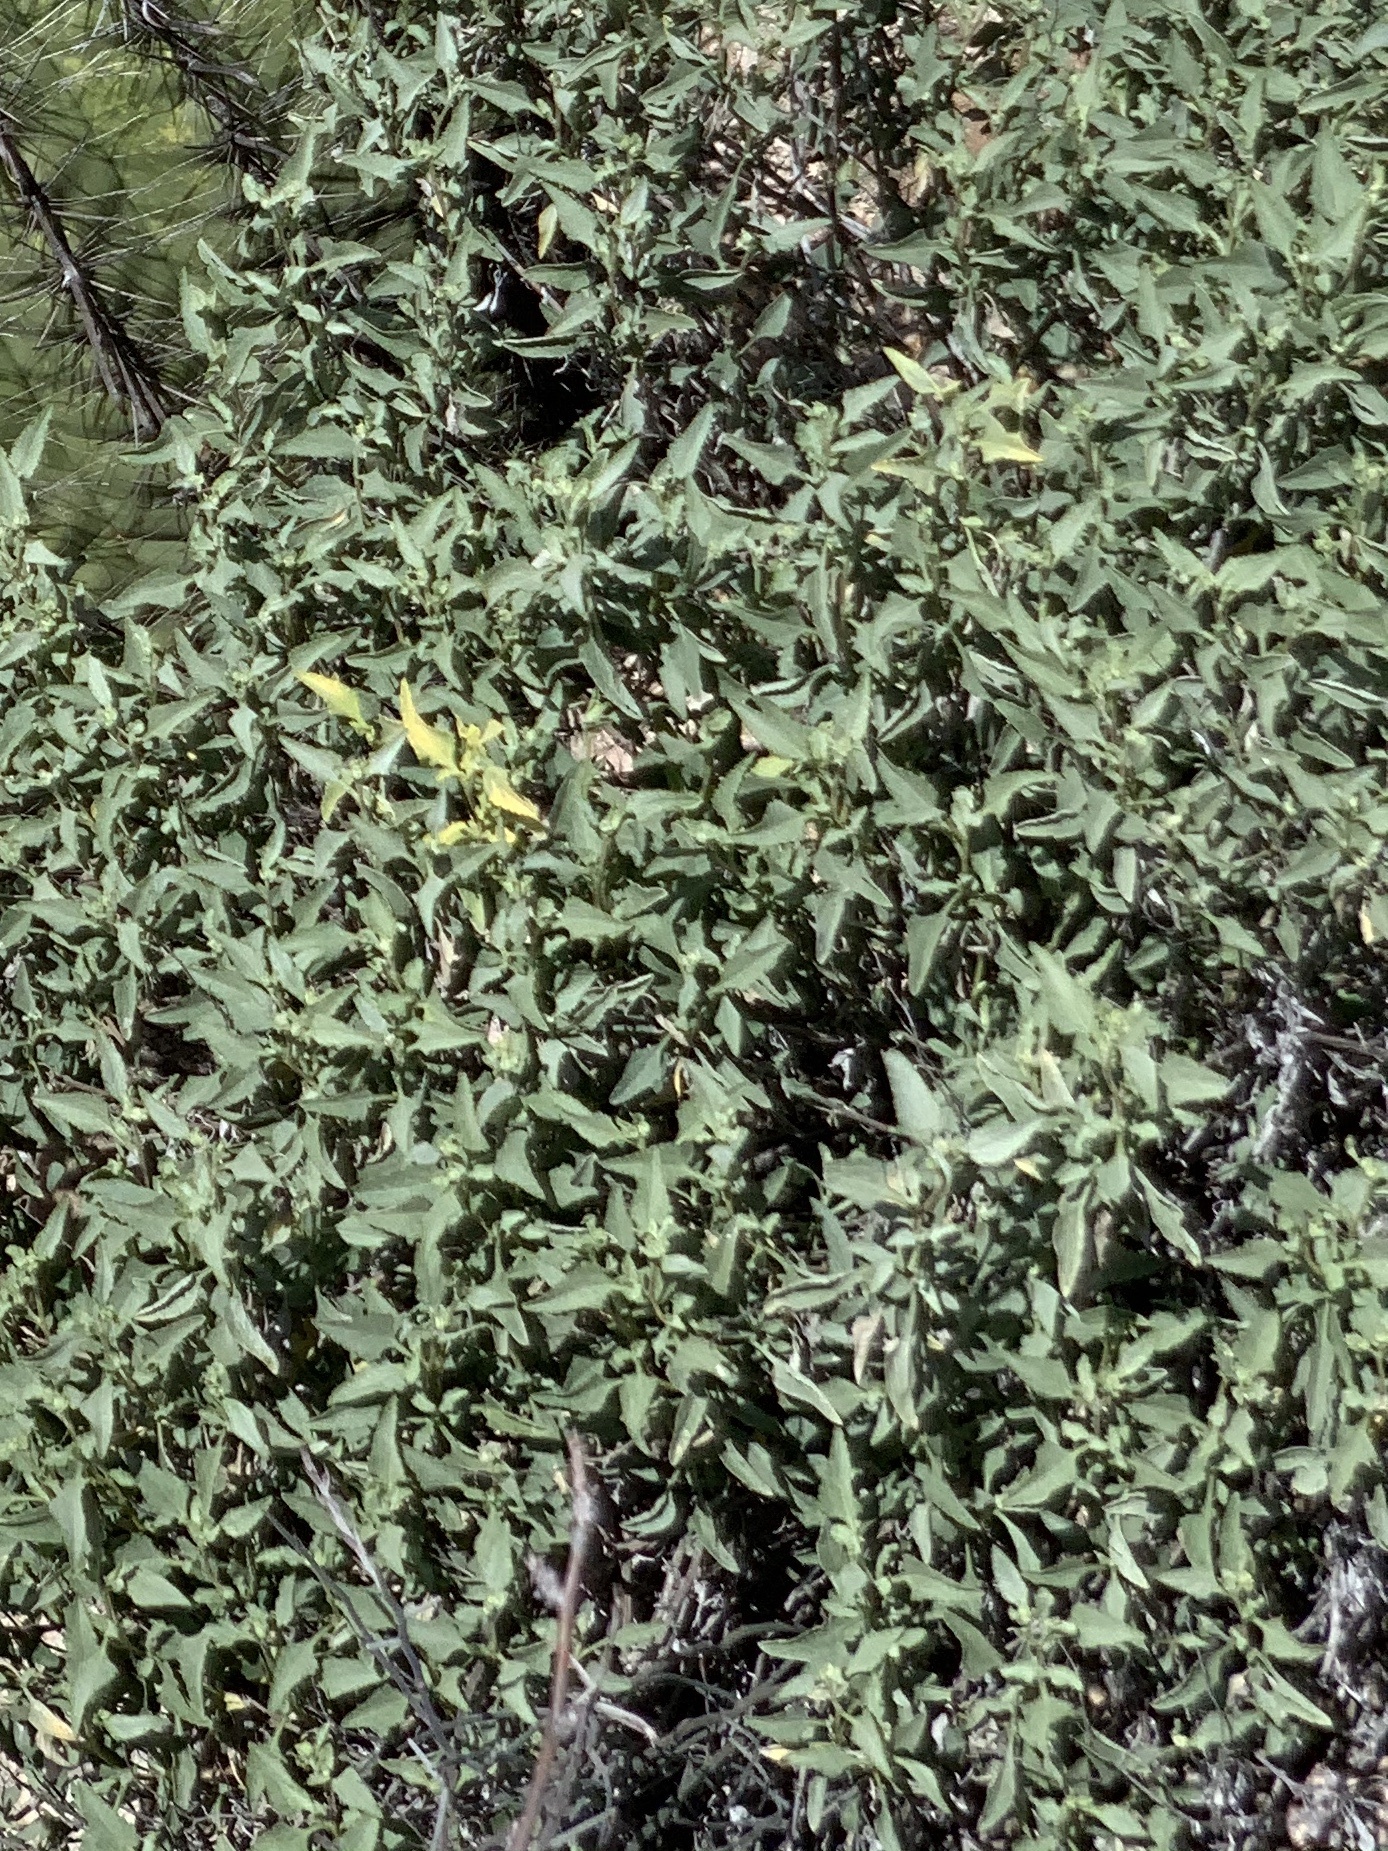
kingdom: Plantae
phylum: Tracheophyta
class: Magnoliopsida
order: Asterales
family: Asteraceae
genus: Ambrosia
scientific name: Ambrosia deltoidea
